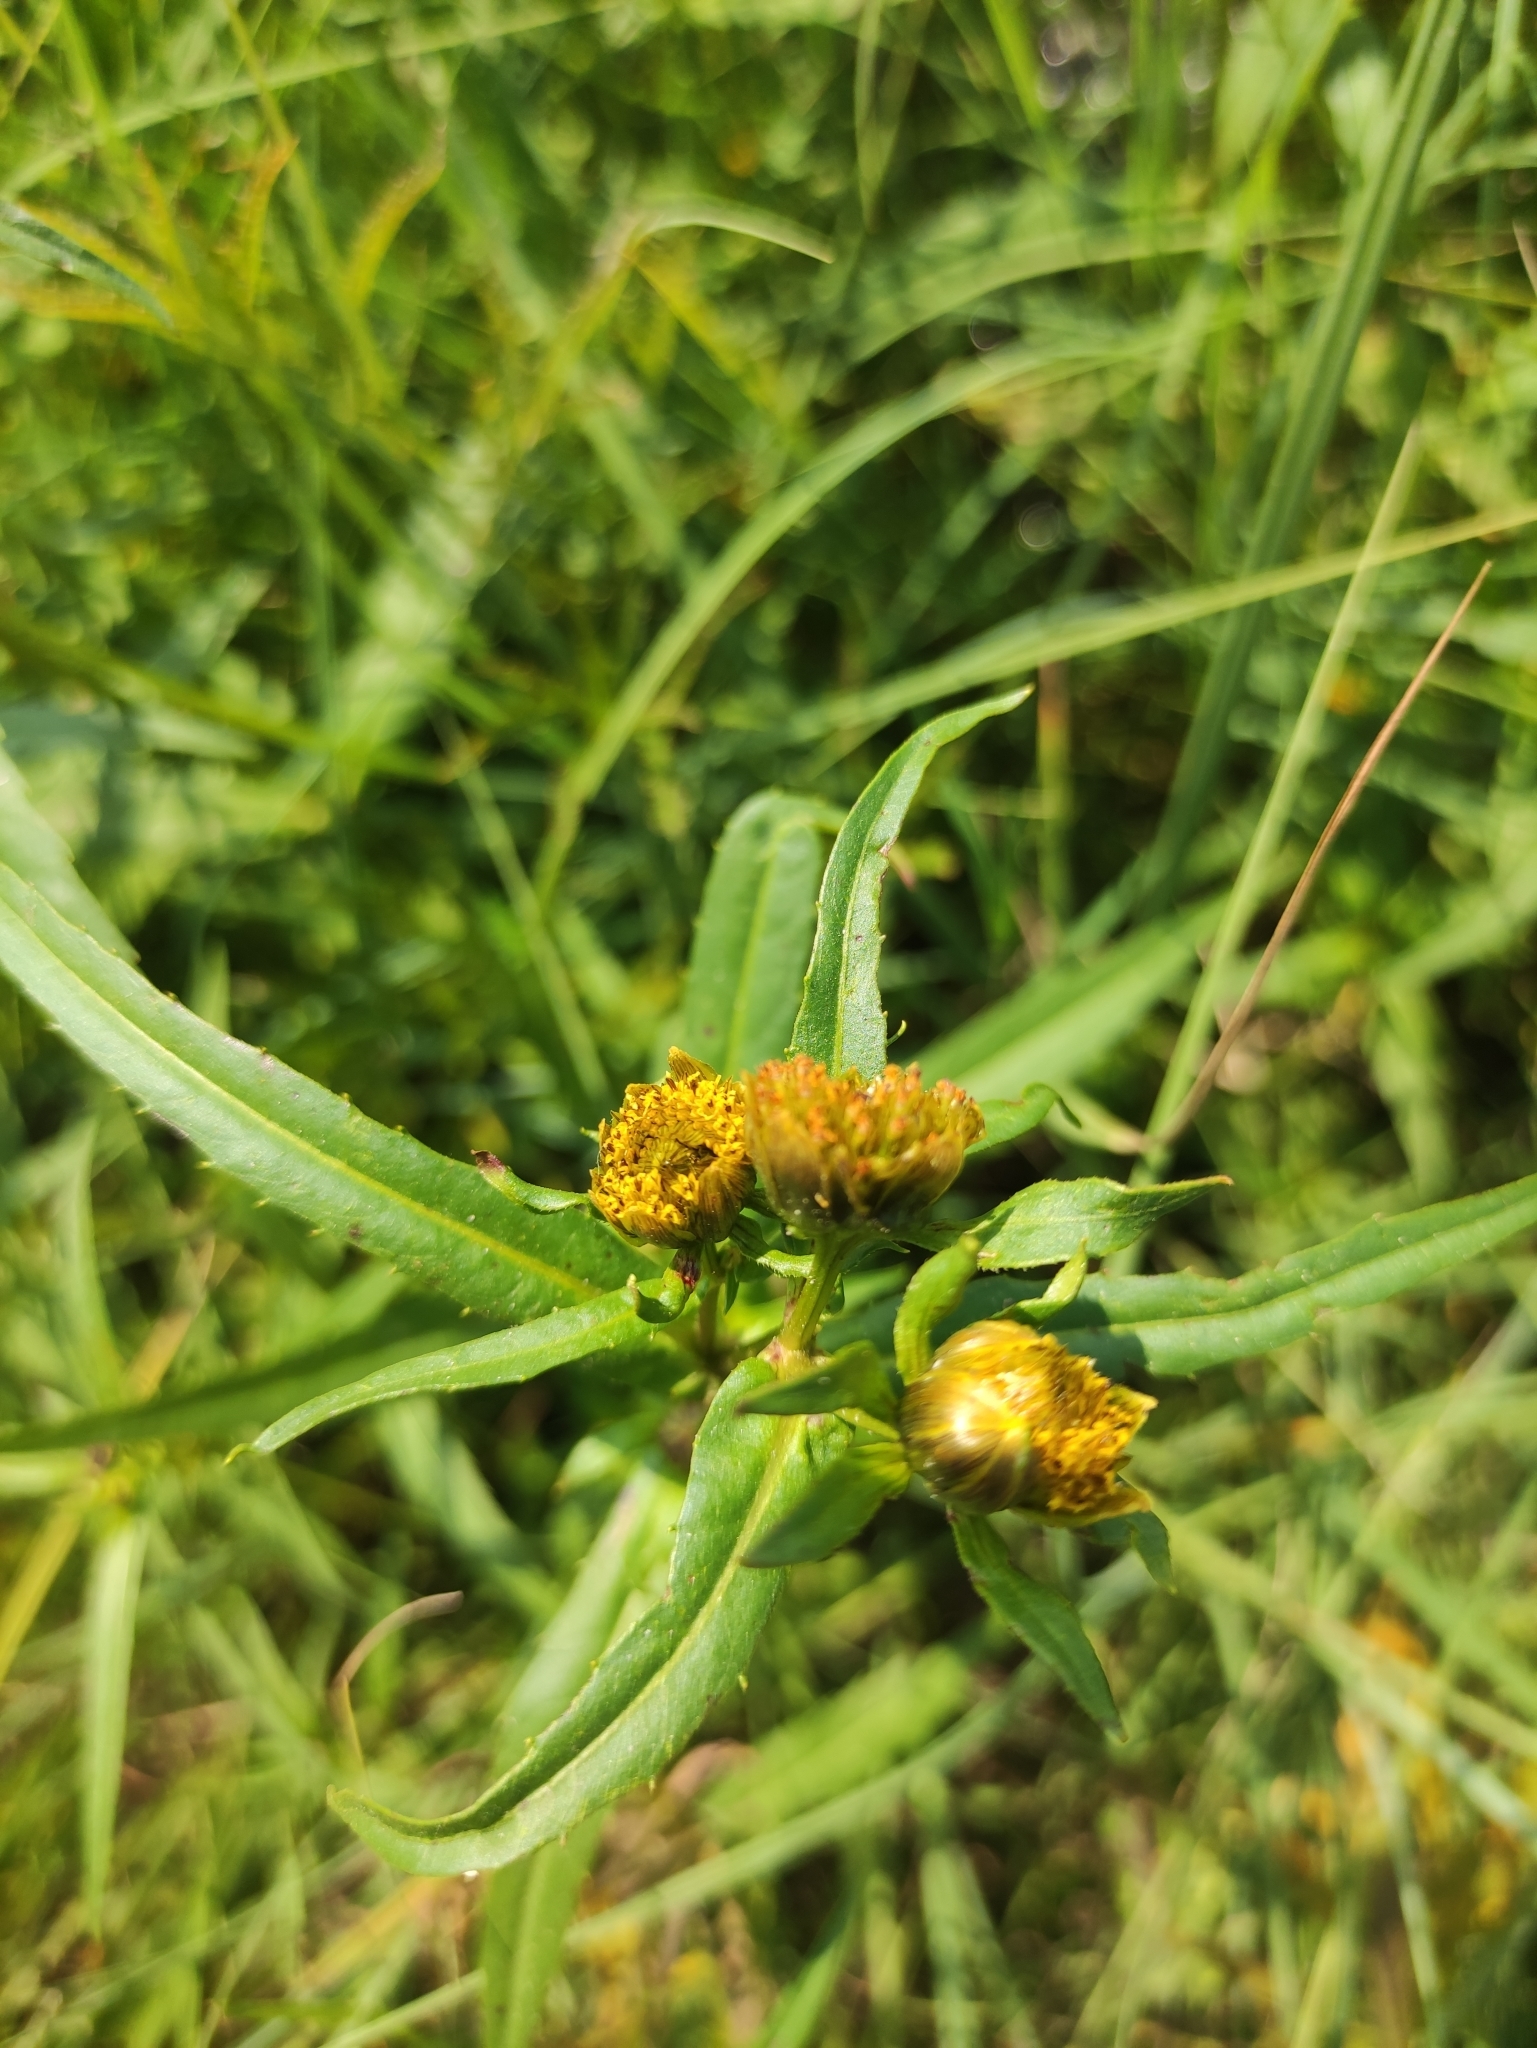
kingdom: Plantae
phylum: Tracheophyta
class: Magnoliopsida
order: Asterales
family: Asteraceae
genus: Bidens
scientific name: Bidens cernua
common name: Nodding bur-marigold
